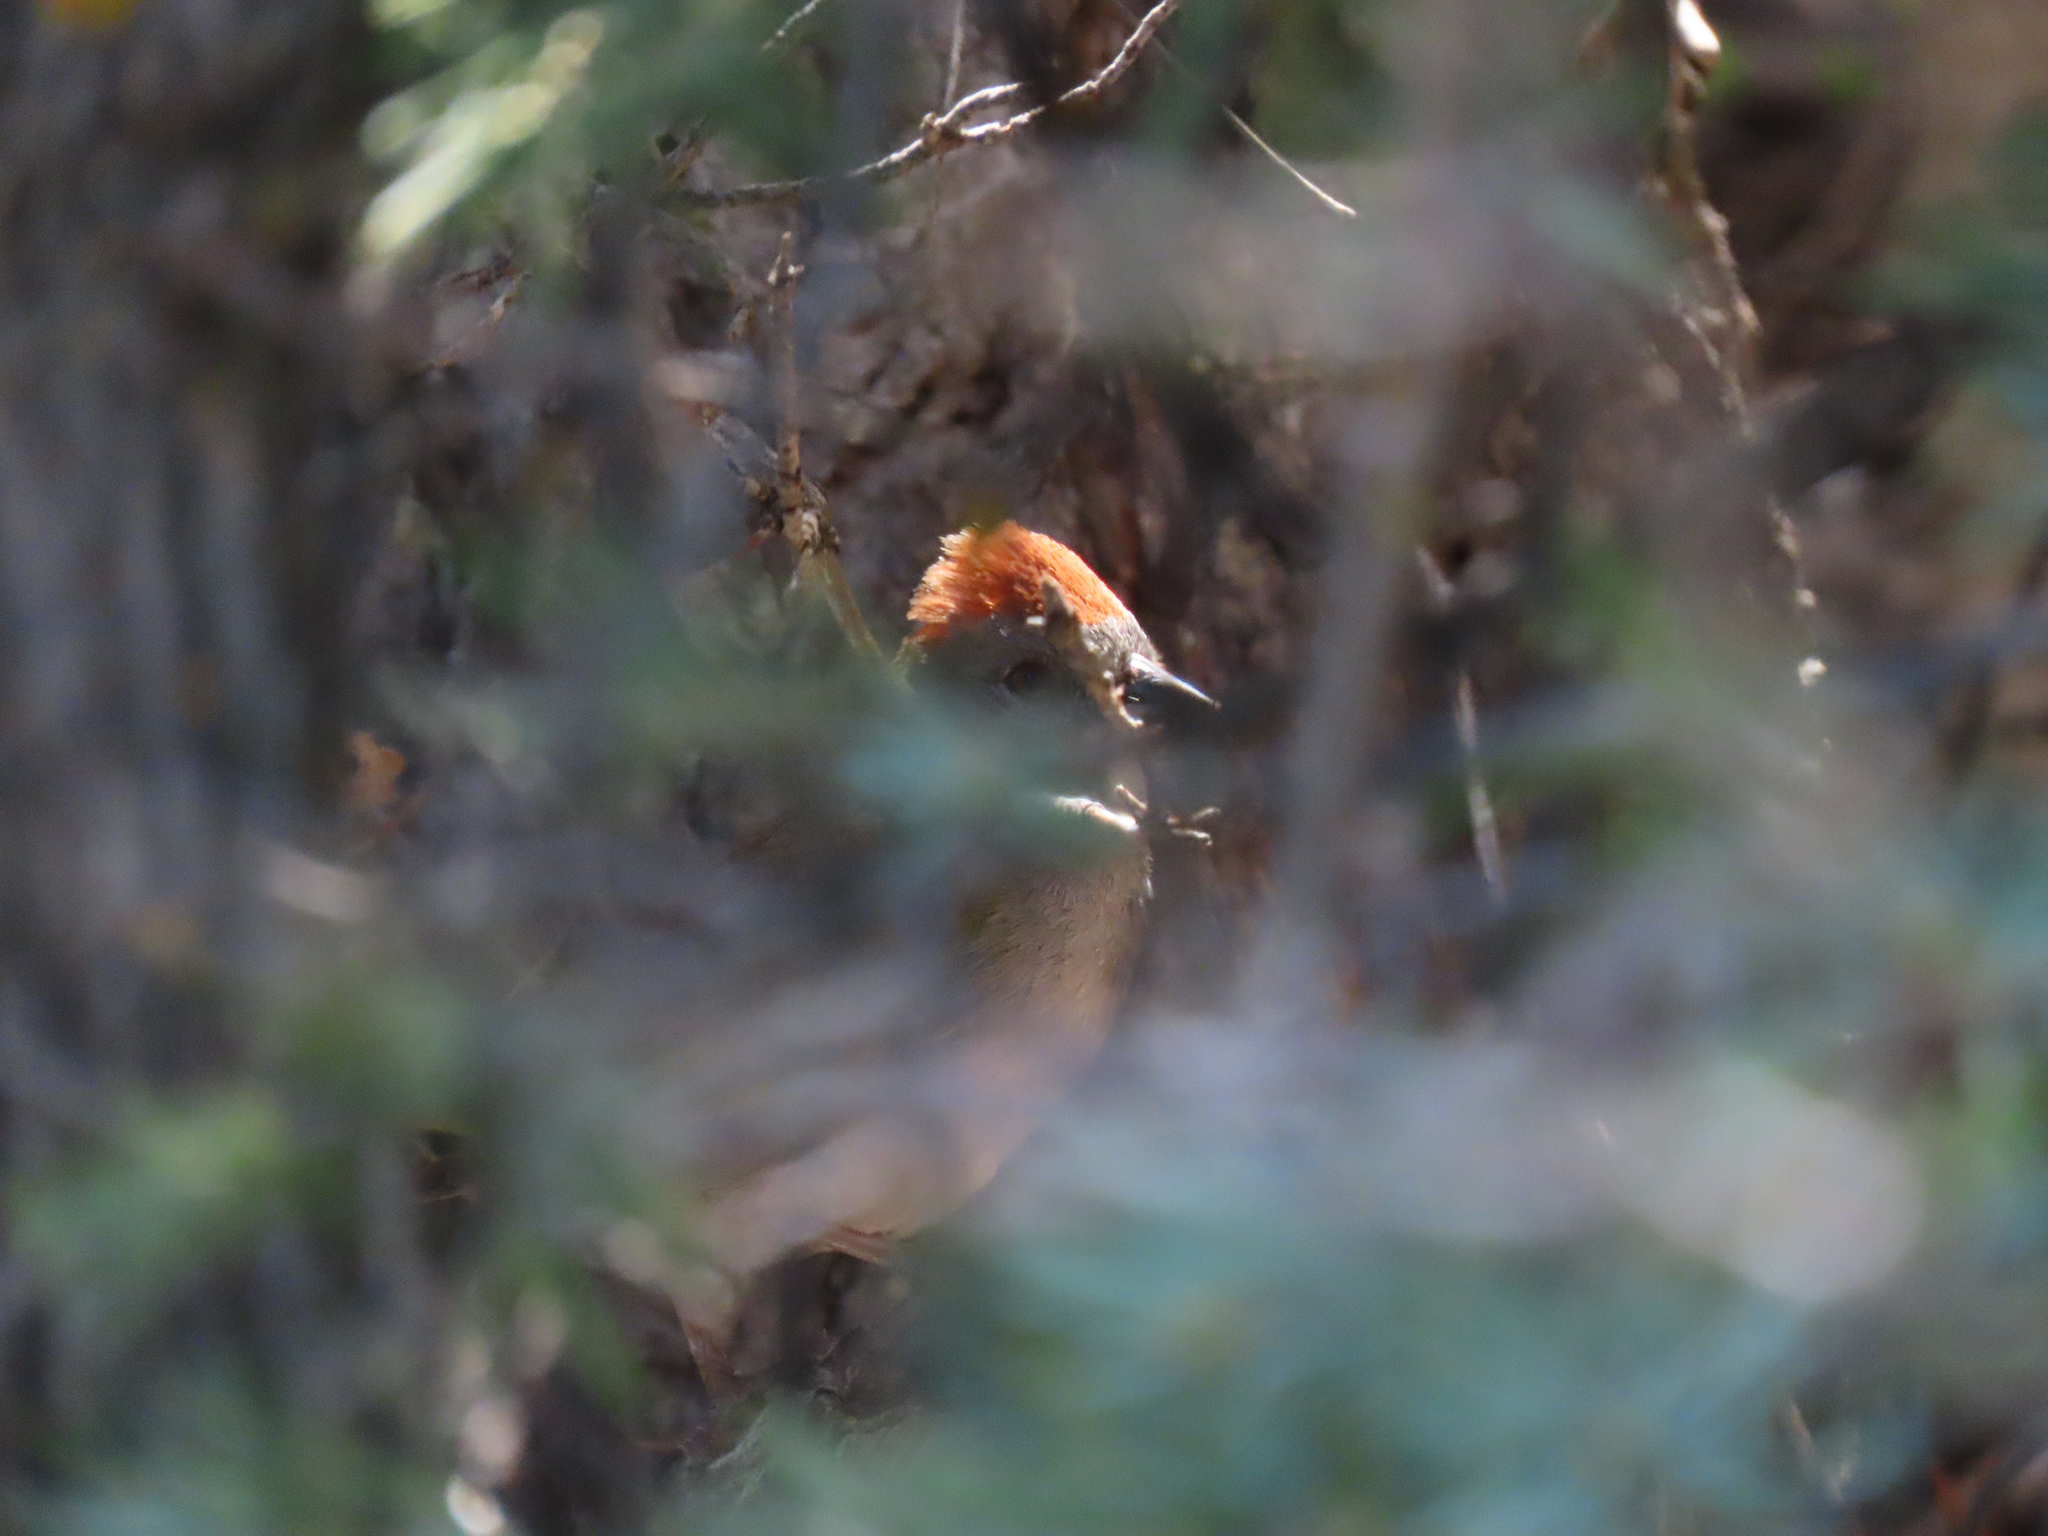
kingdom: Animalia
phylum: Chordata
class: Aves
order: Passeriformes
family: Passerellidae
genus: Pipilo
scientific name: Pipilo chlorurus
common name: Green-tailed towhee
